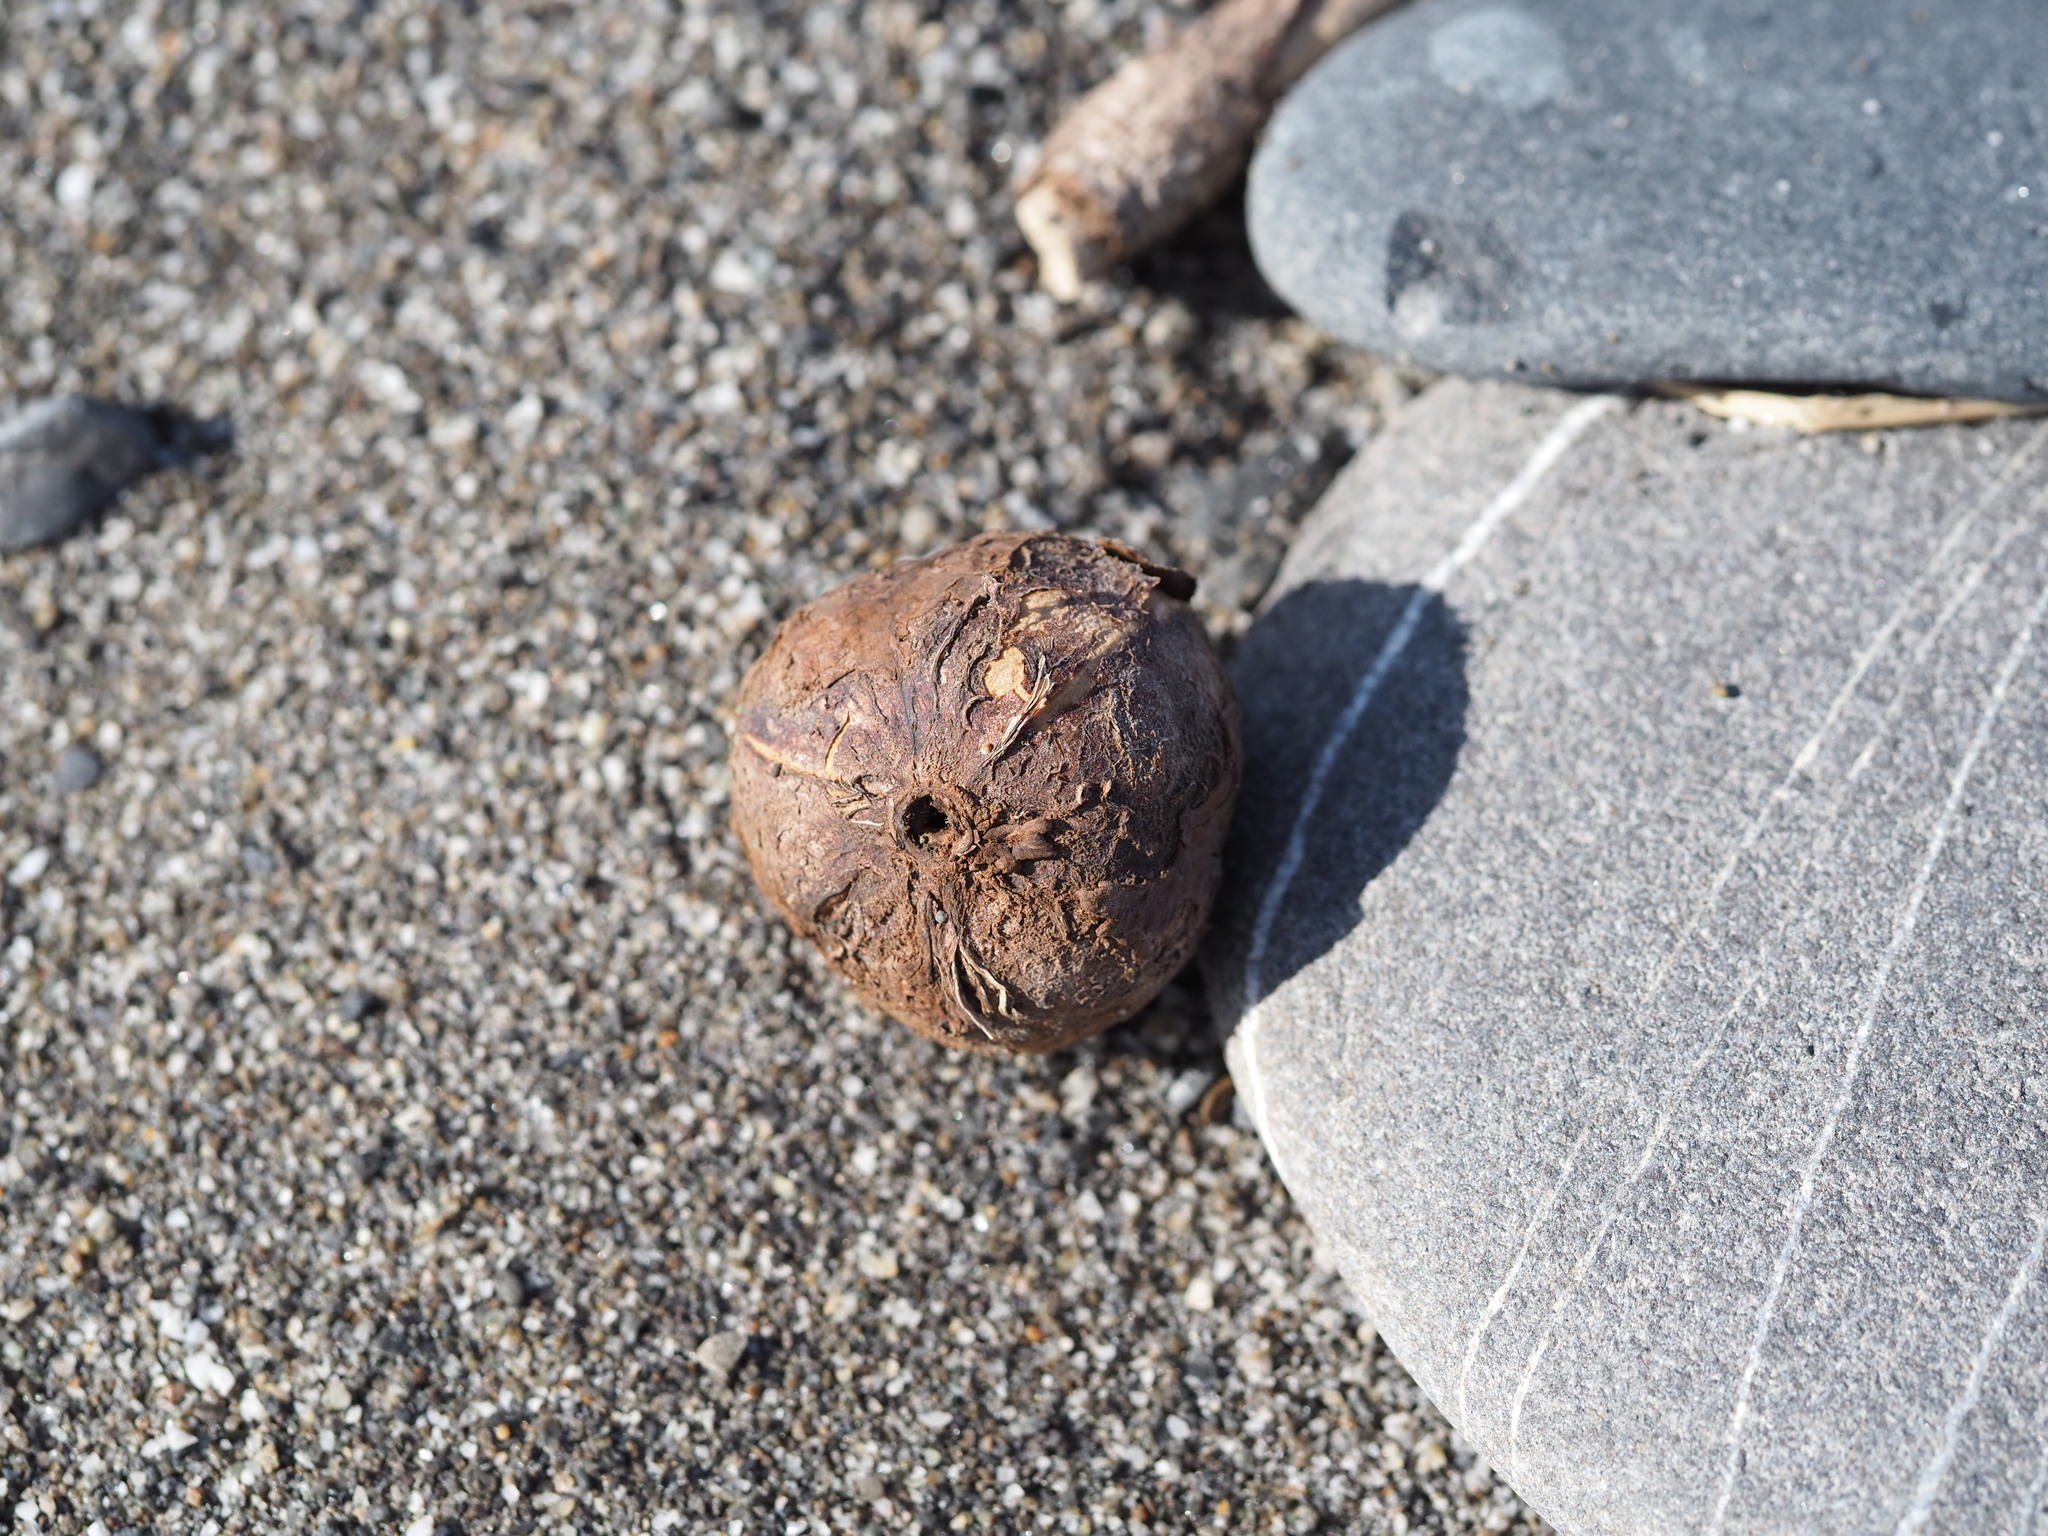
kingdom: Plantae
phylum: Tracheophyta
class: Magnoliopsida
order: Malpighiales
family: Euphorbiaceae
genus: Vernicia
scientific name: Vernicia montana
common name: Mu oil tree
